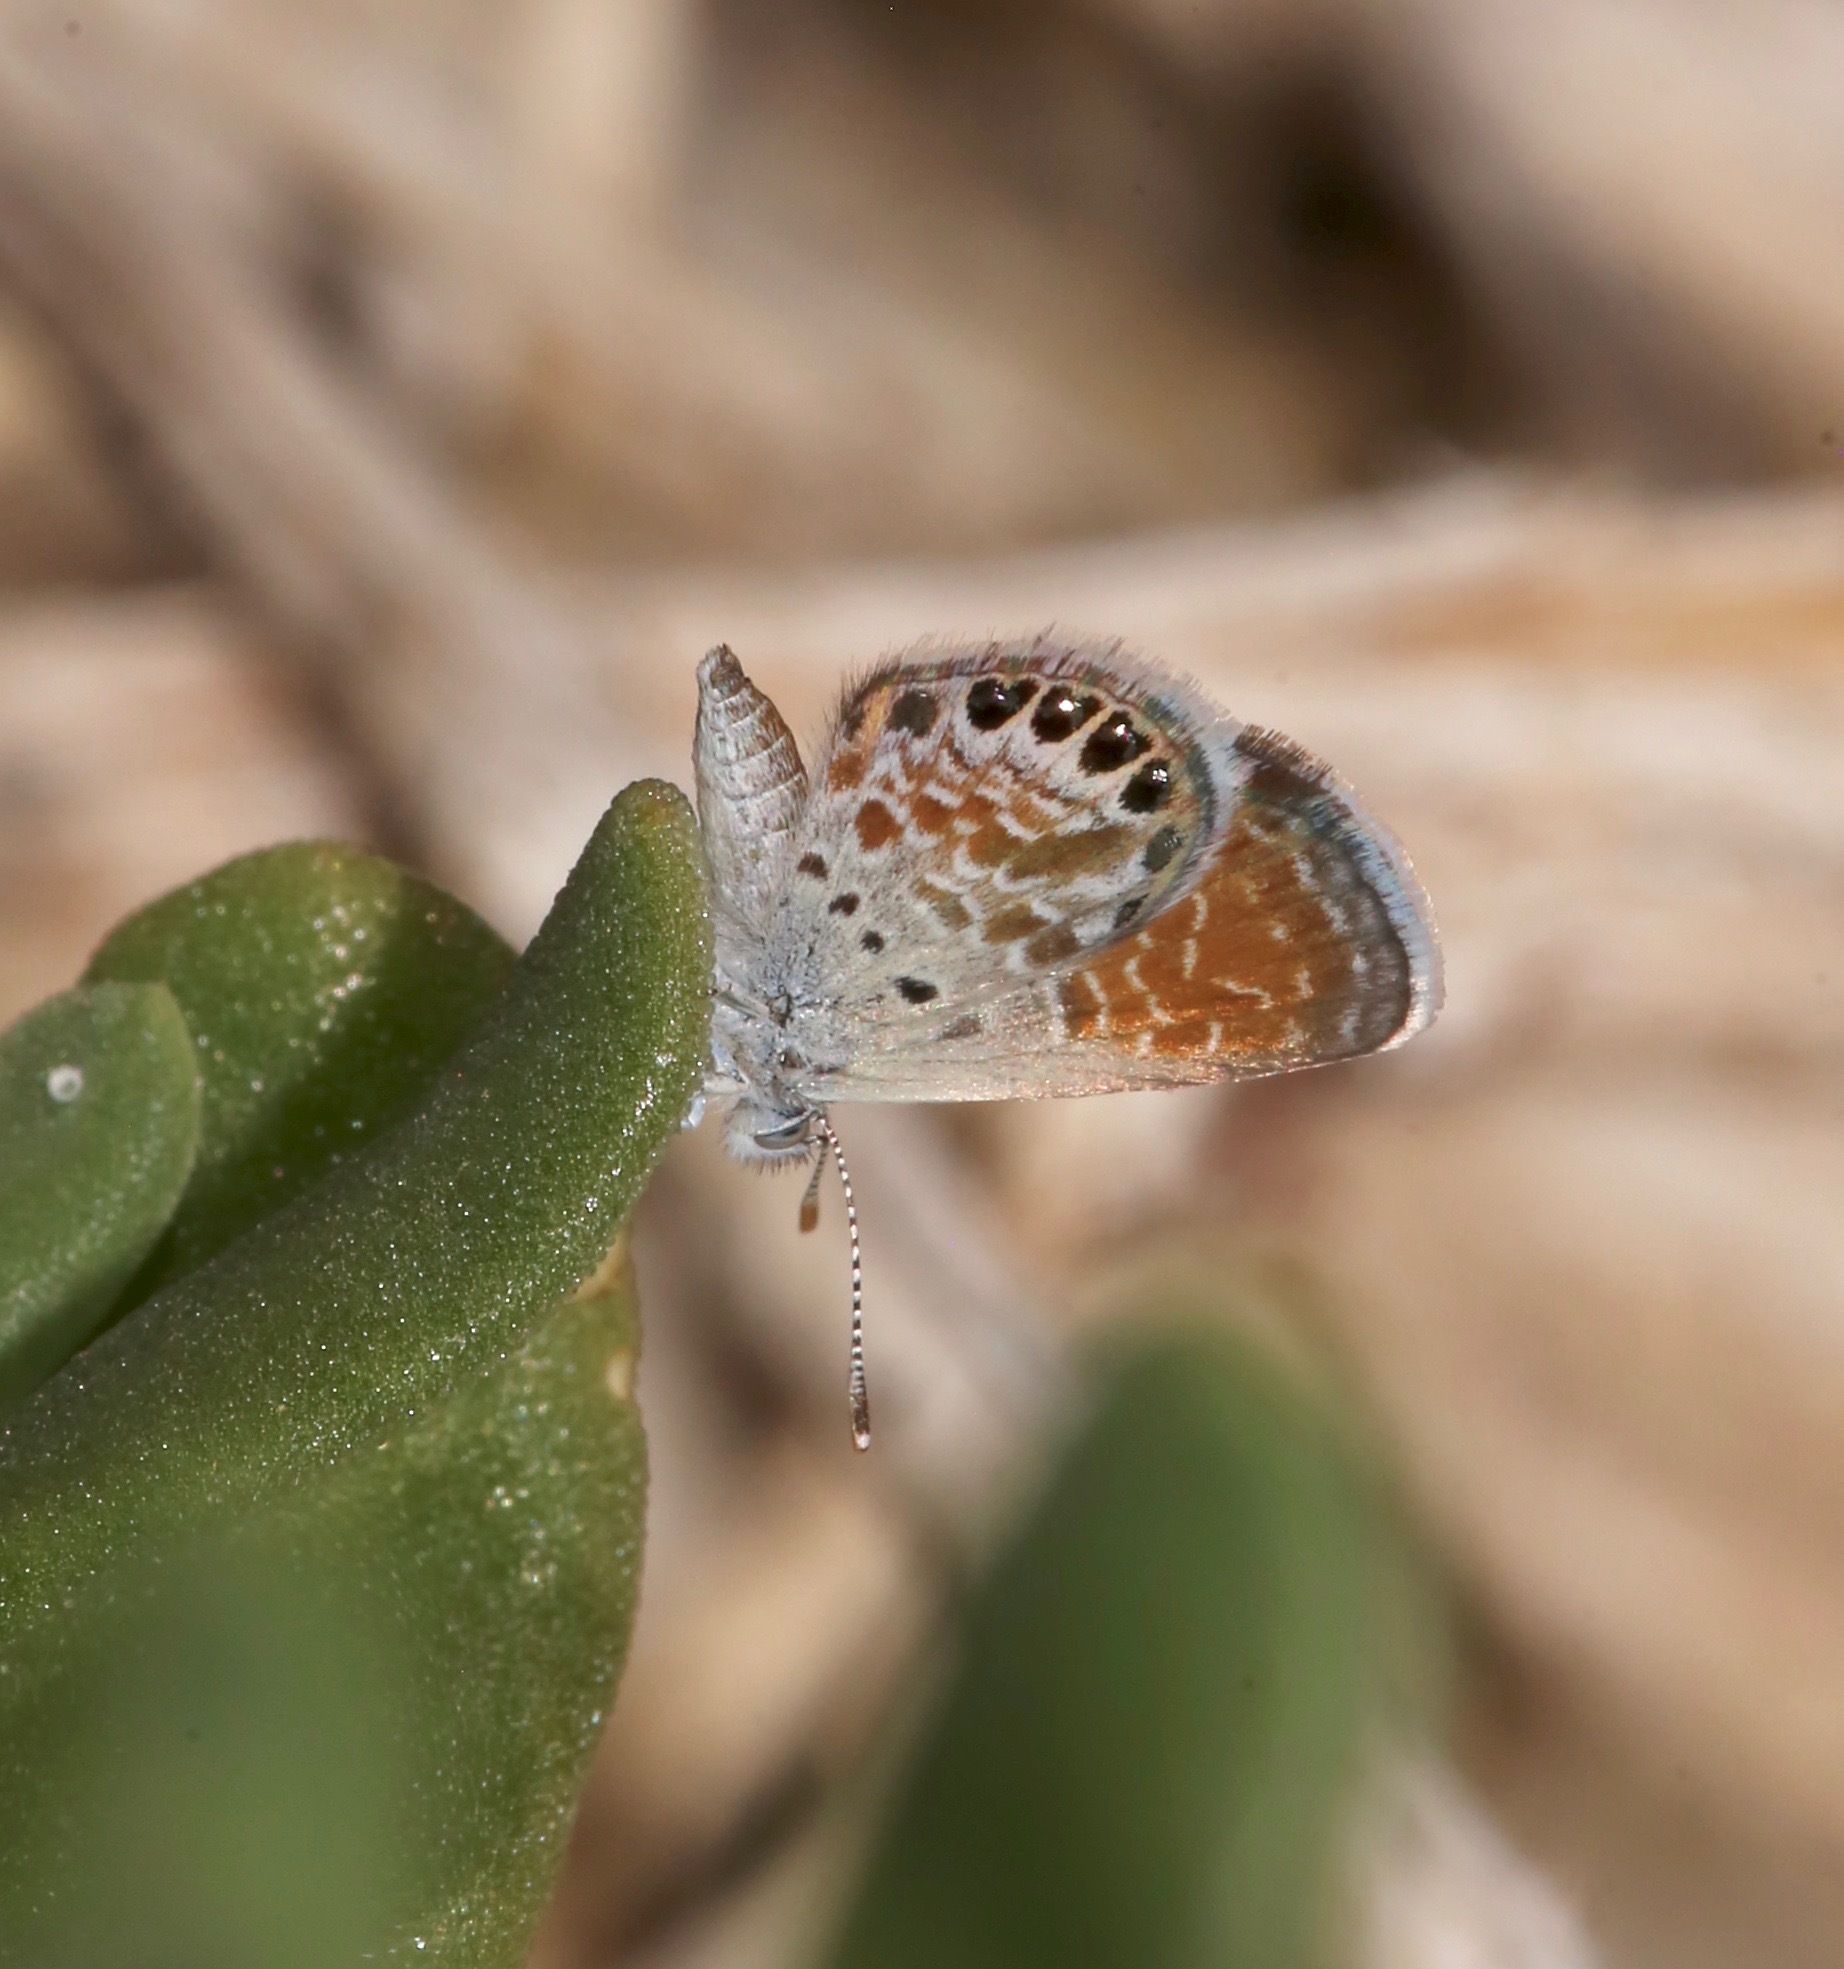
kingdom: Animalia
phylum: Arthropoda
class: Insecta
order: Lepidoptera
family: Lycaenidae
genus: Brephidium
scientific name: Brephidium exilis
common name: Pygmy blue
